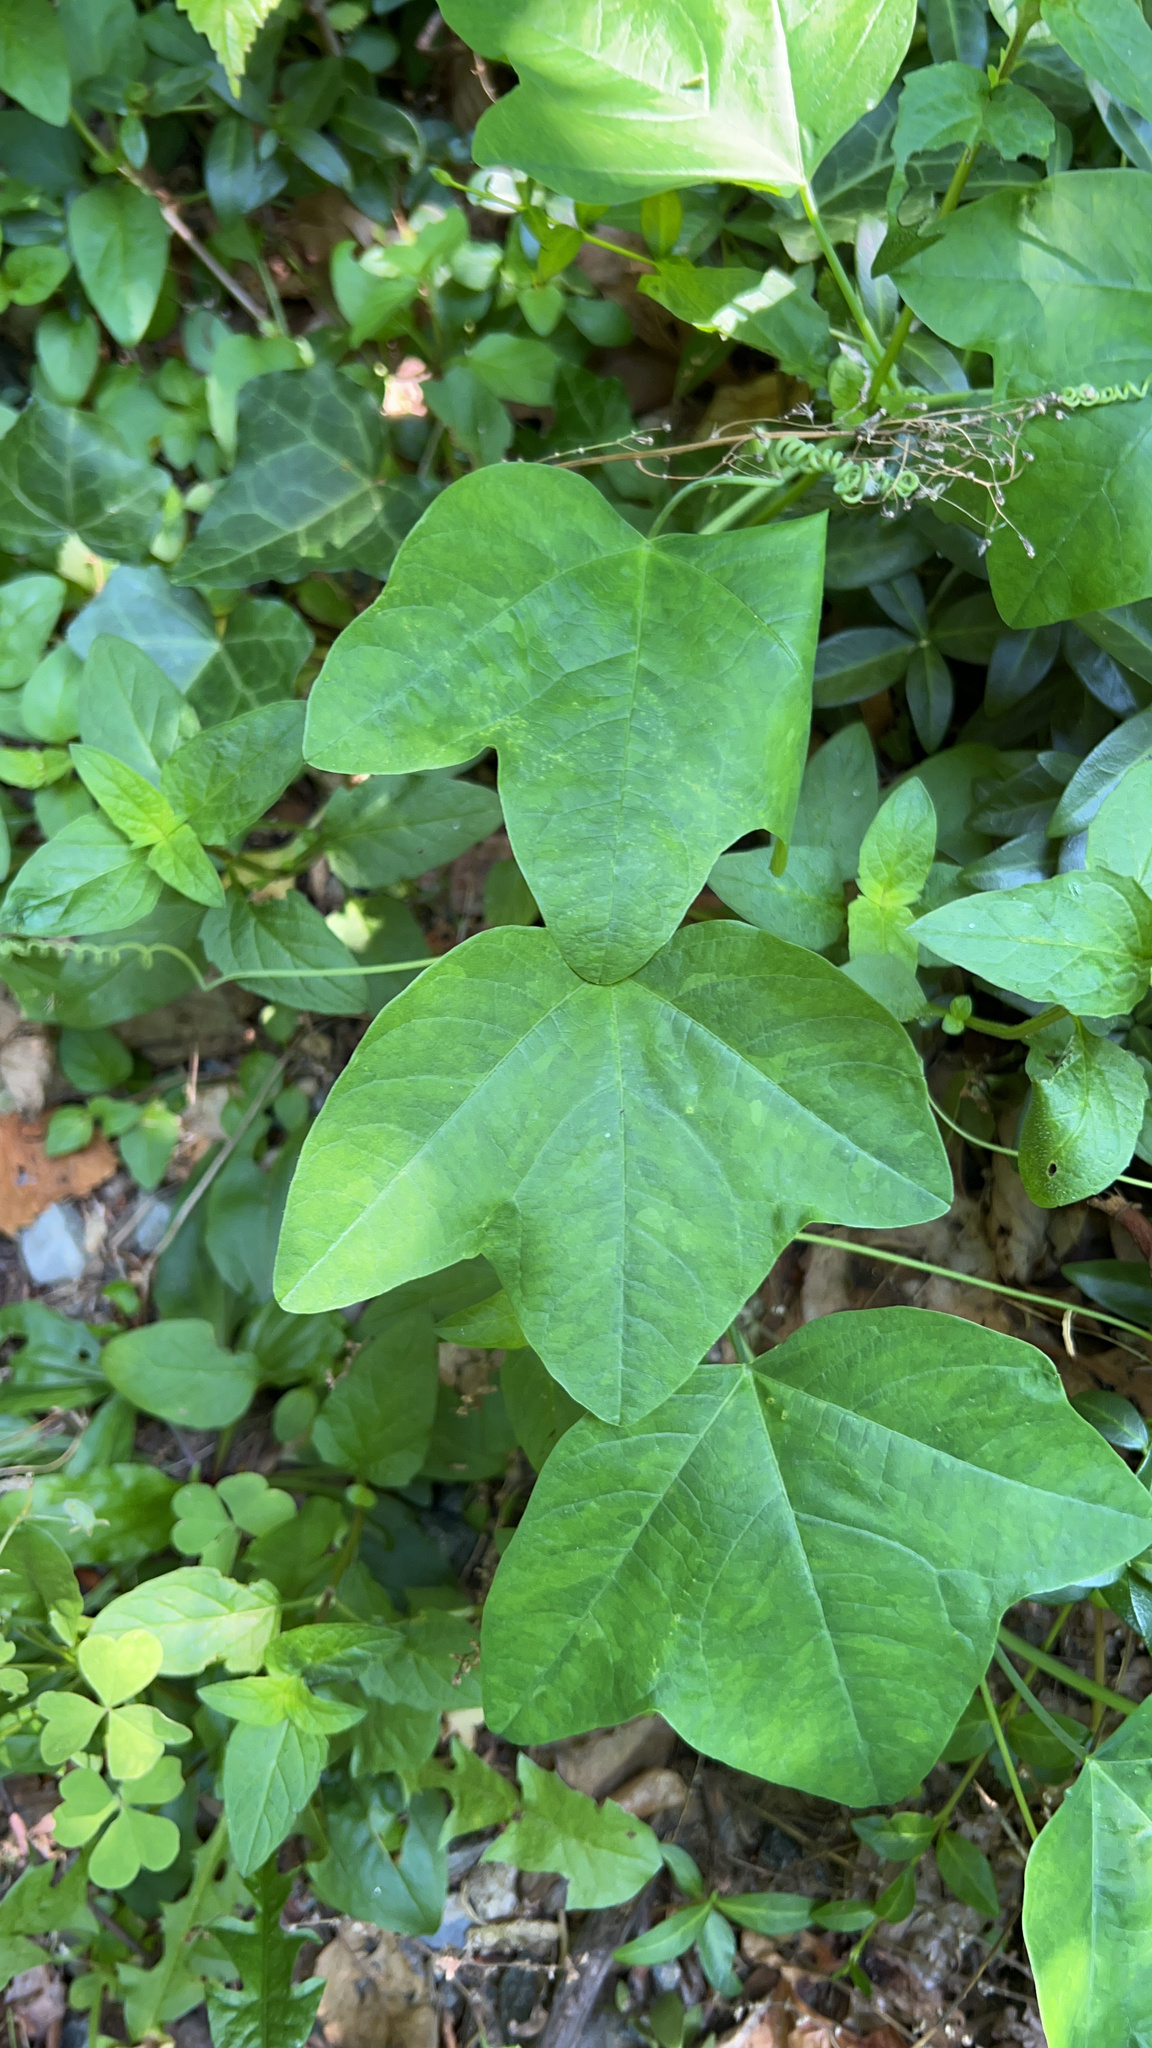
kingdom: Plantae
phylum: Tracheophyta
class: Magnoliopsida
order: Malpighiales
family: Passifloraceae
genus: Passiflora
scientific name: Passiflora lutea
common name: Yellow passionflower
